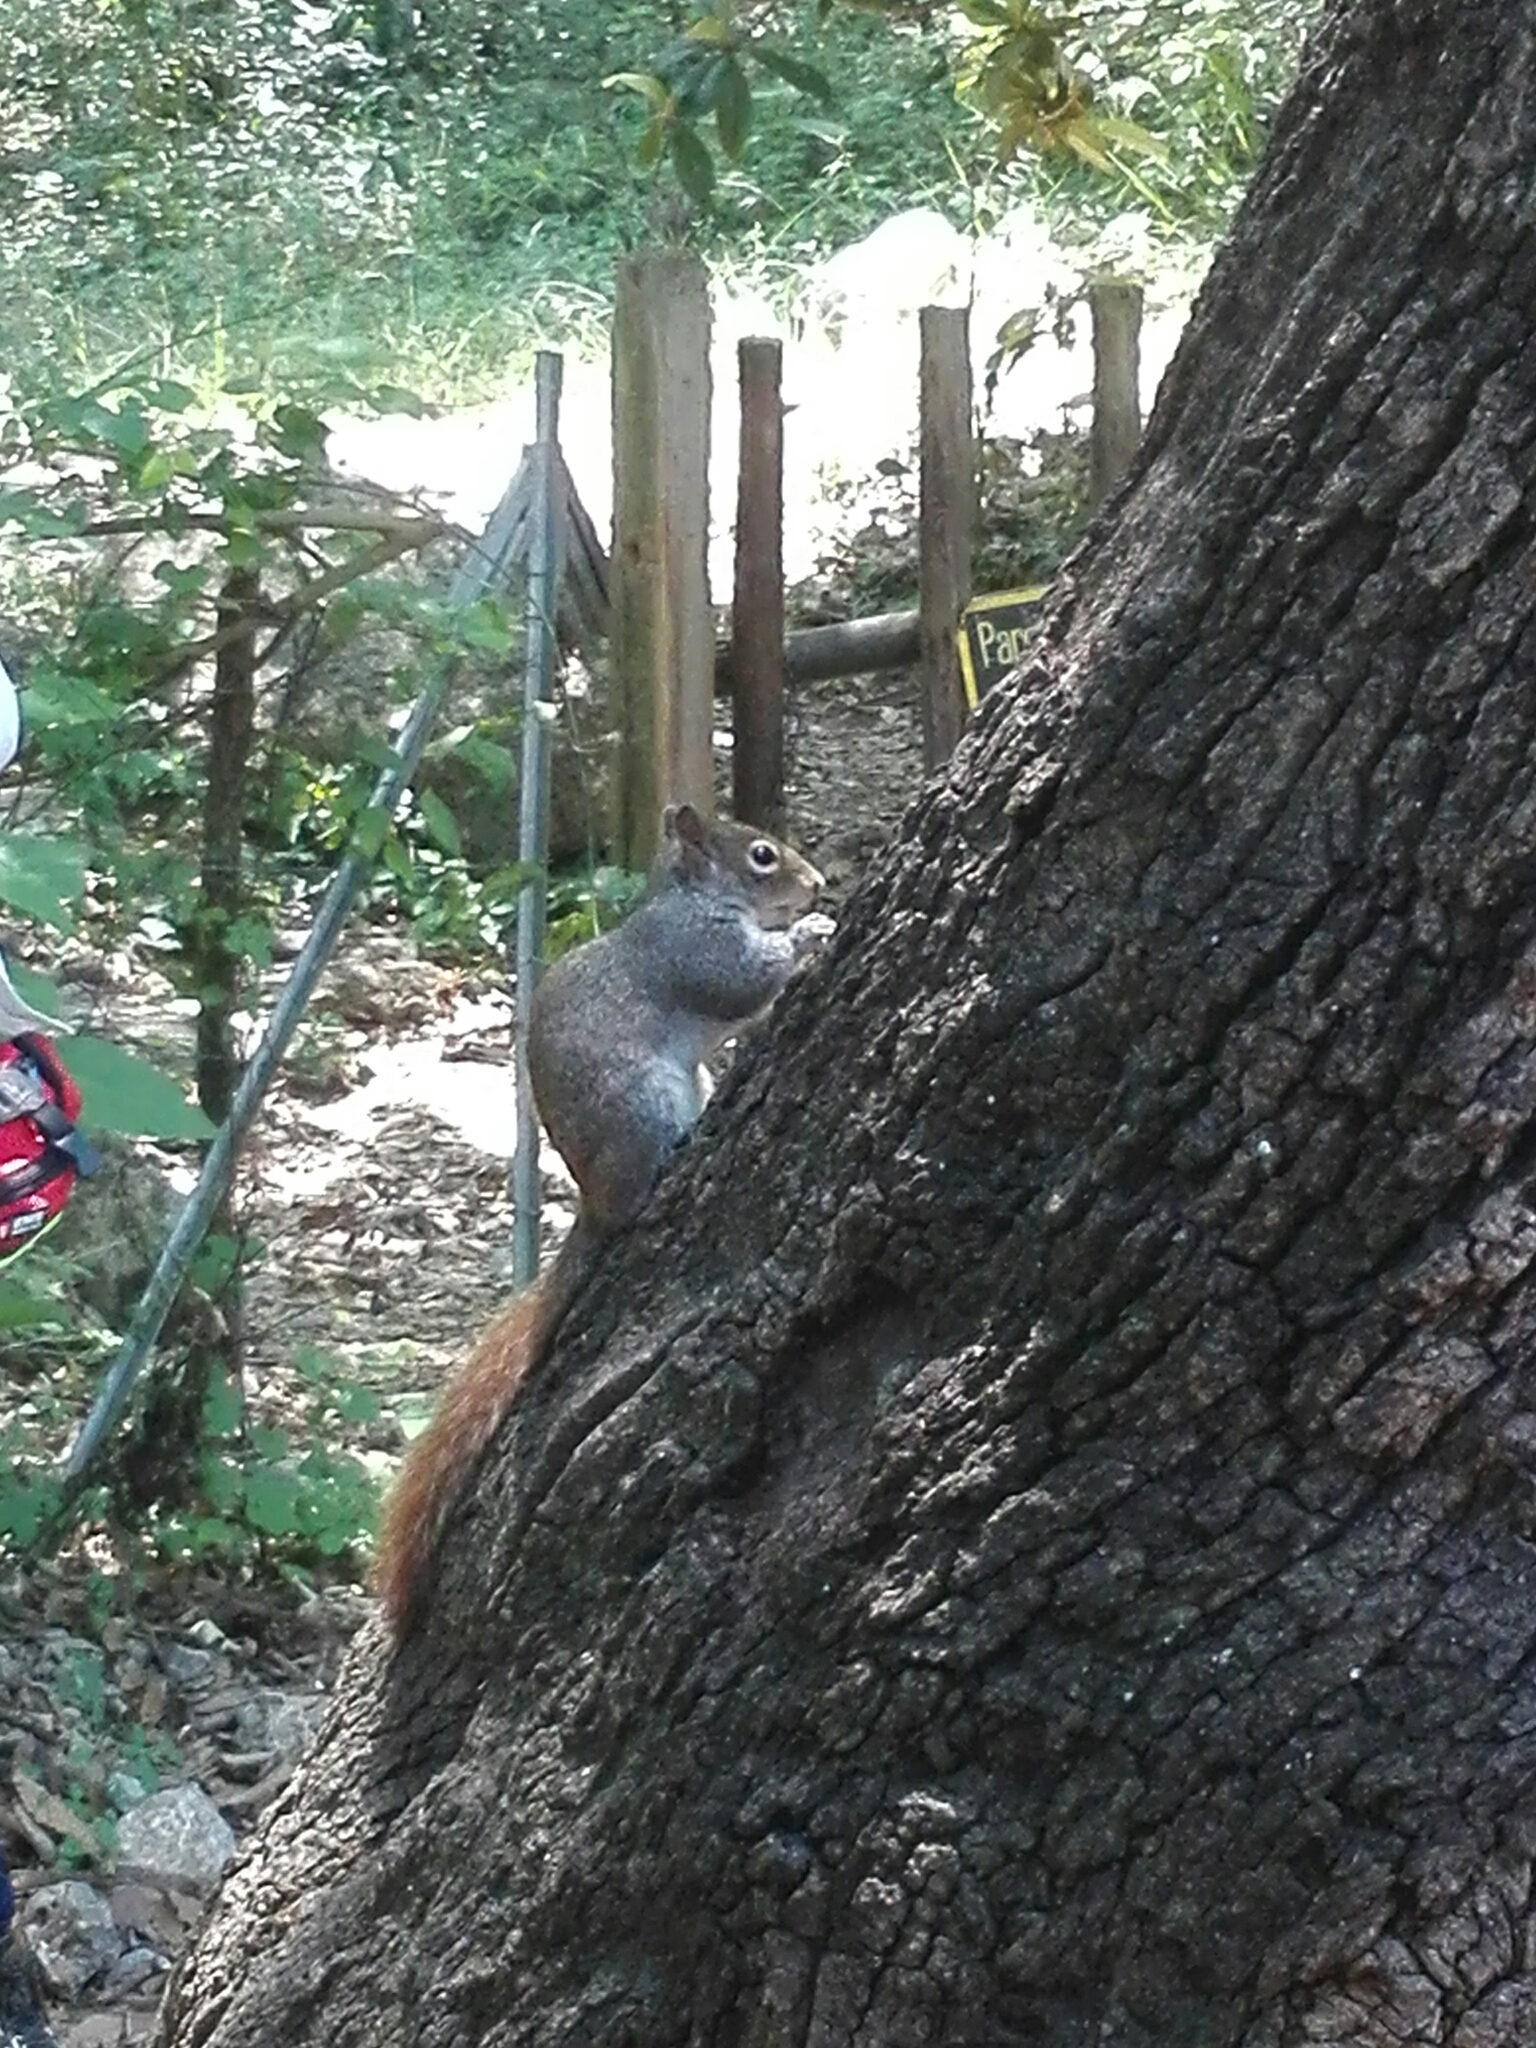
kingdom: Animalia
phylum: Chordata
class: Mammalia
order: Rodentia
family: Sciuridae
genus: Sciurus
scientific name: Sciurus alleni
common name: Allen's squirrel
